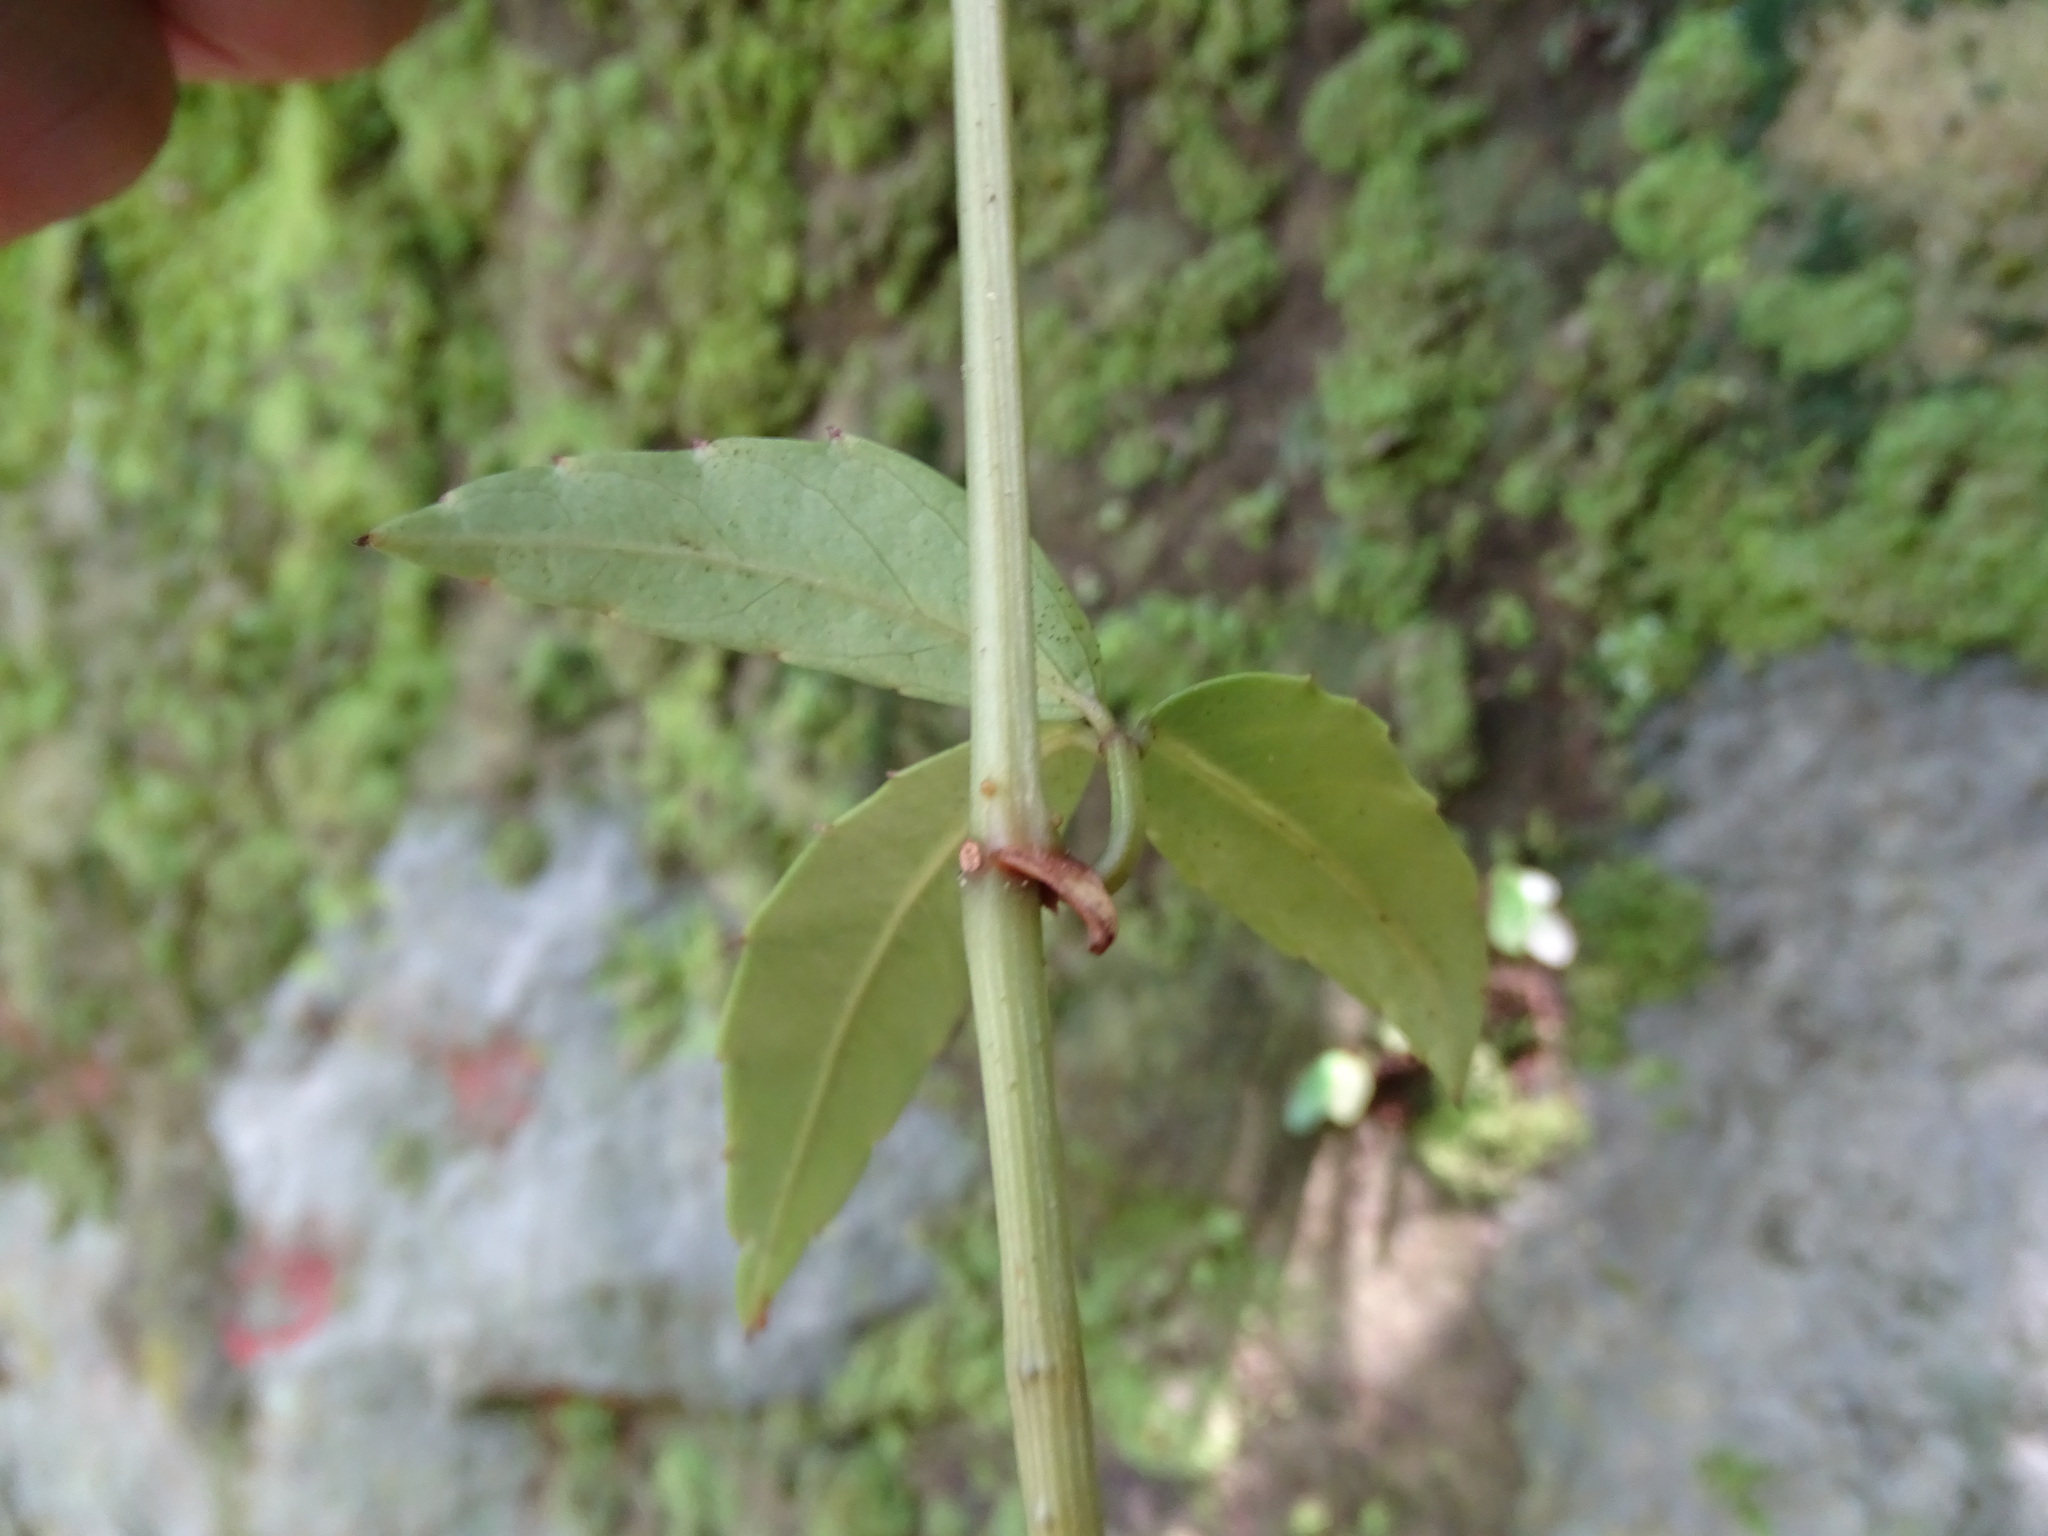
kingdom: Plantae
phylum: Tracheophyta
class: Magnoliopsida
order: Vitales
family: Vitaceae
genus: Tetrastigma
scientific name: Tetrastigma formosanum
